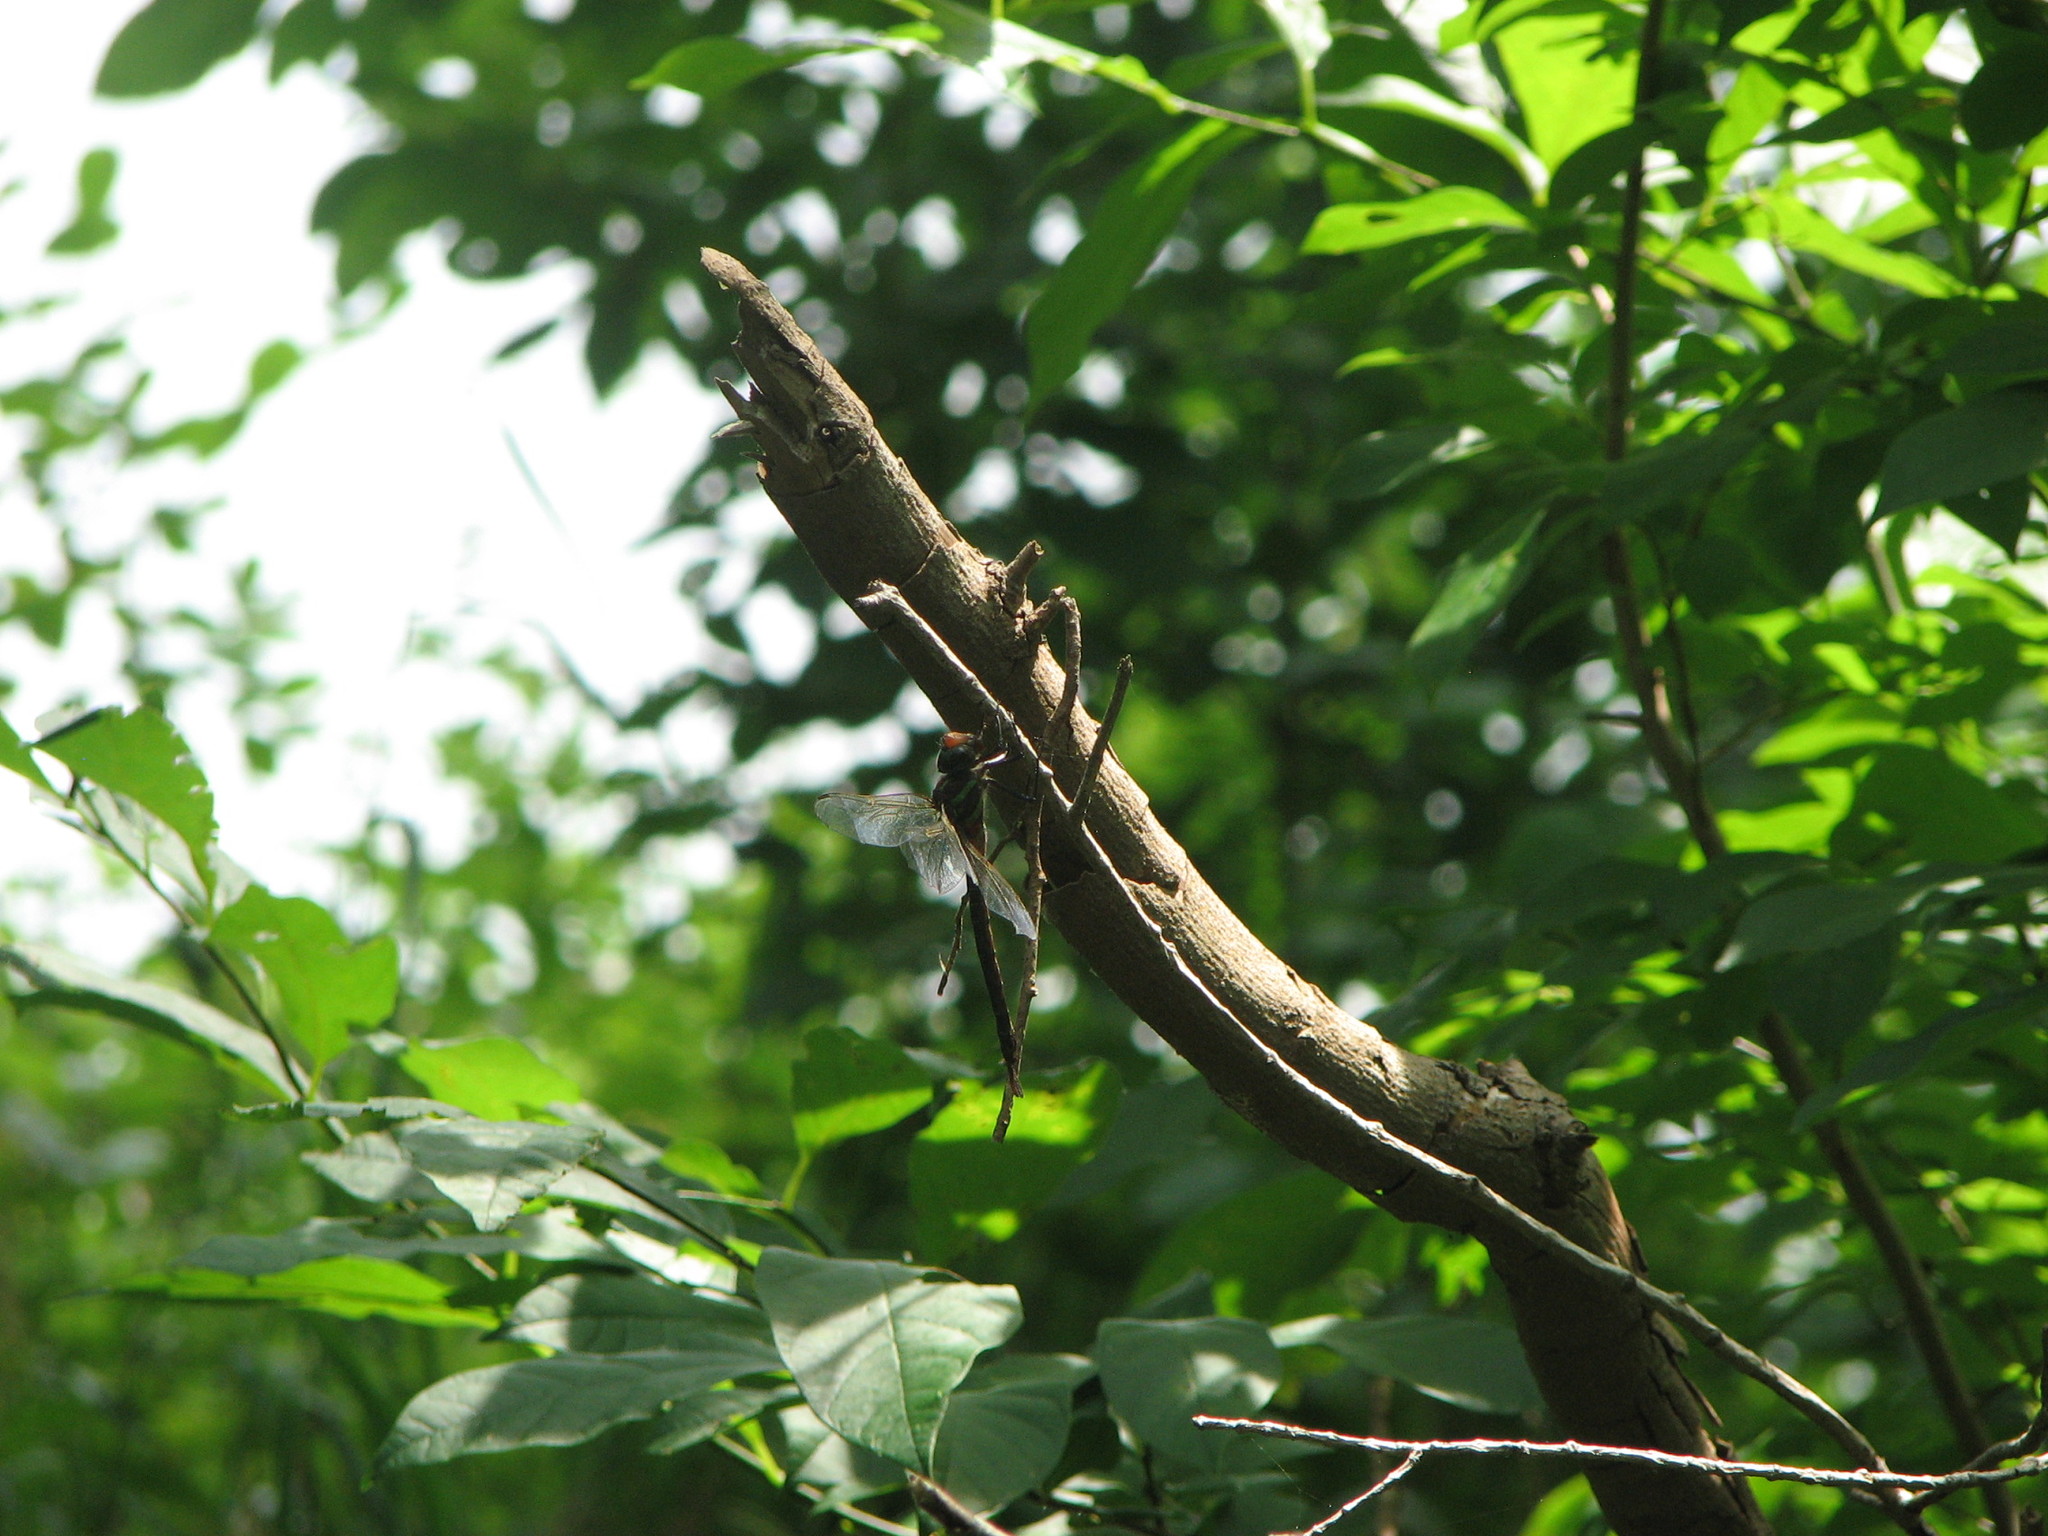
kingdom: Animalia
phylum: Arthropoda
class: Insecta
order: Odonata
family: Aeshnidae
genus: Epiaeschna
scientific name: Epiaeschna heros
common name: Swamp darner
